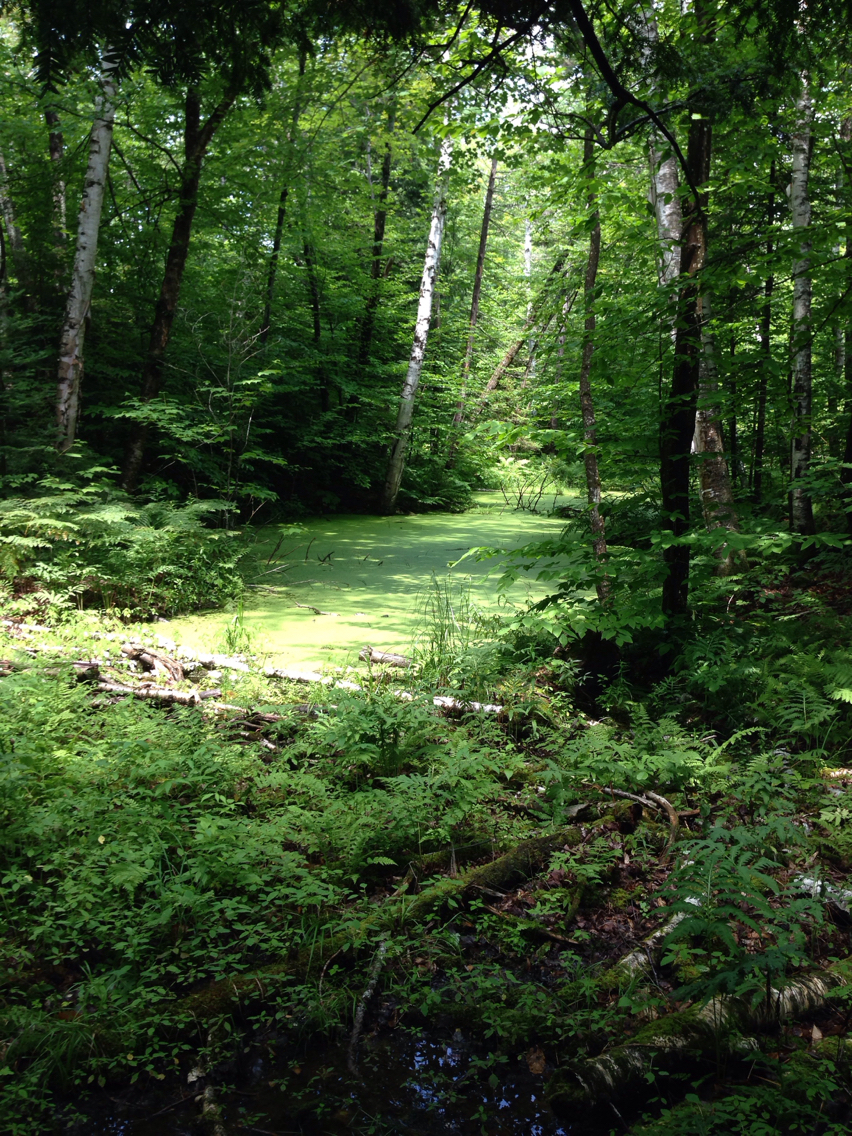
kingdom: Plantae
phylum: Tracheophyta
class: Liliopsida
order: Alismatales
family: Araceae
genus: Lemna
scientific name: Lemna
